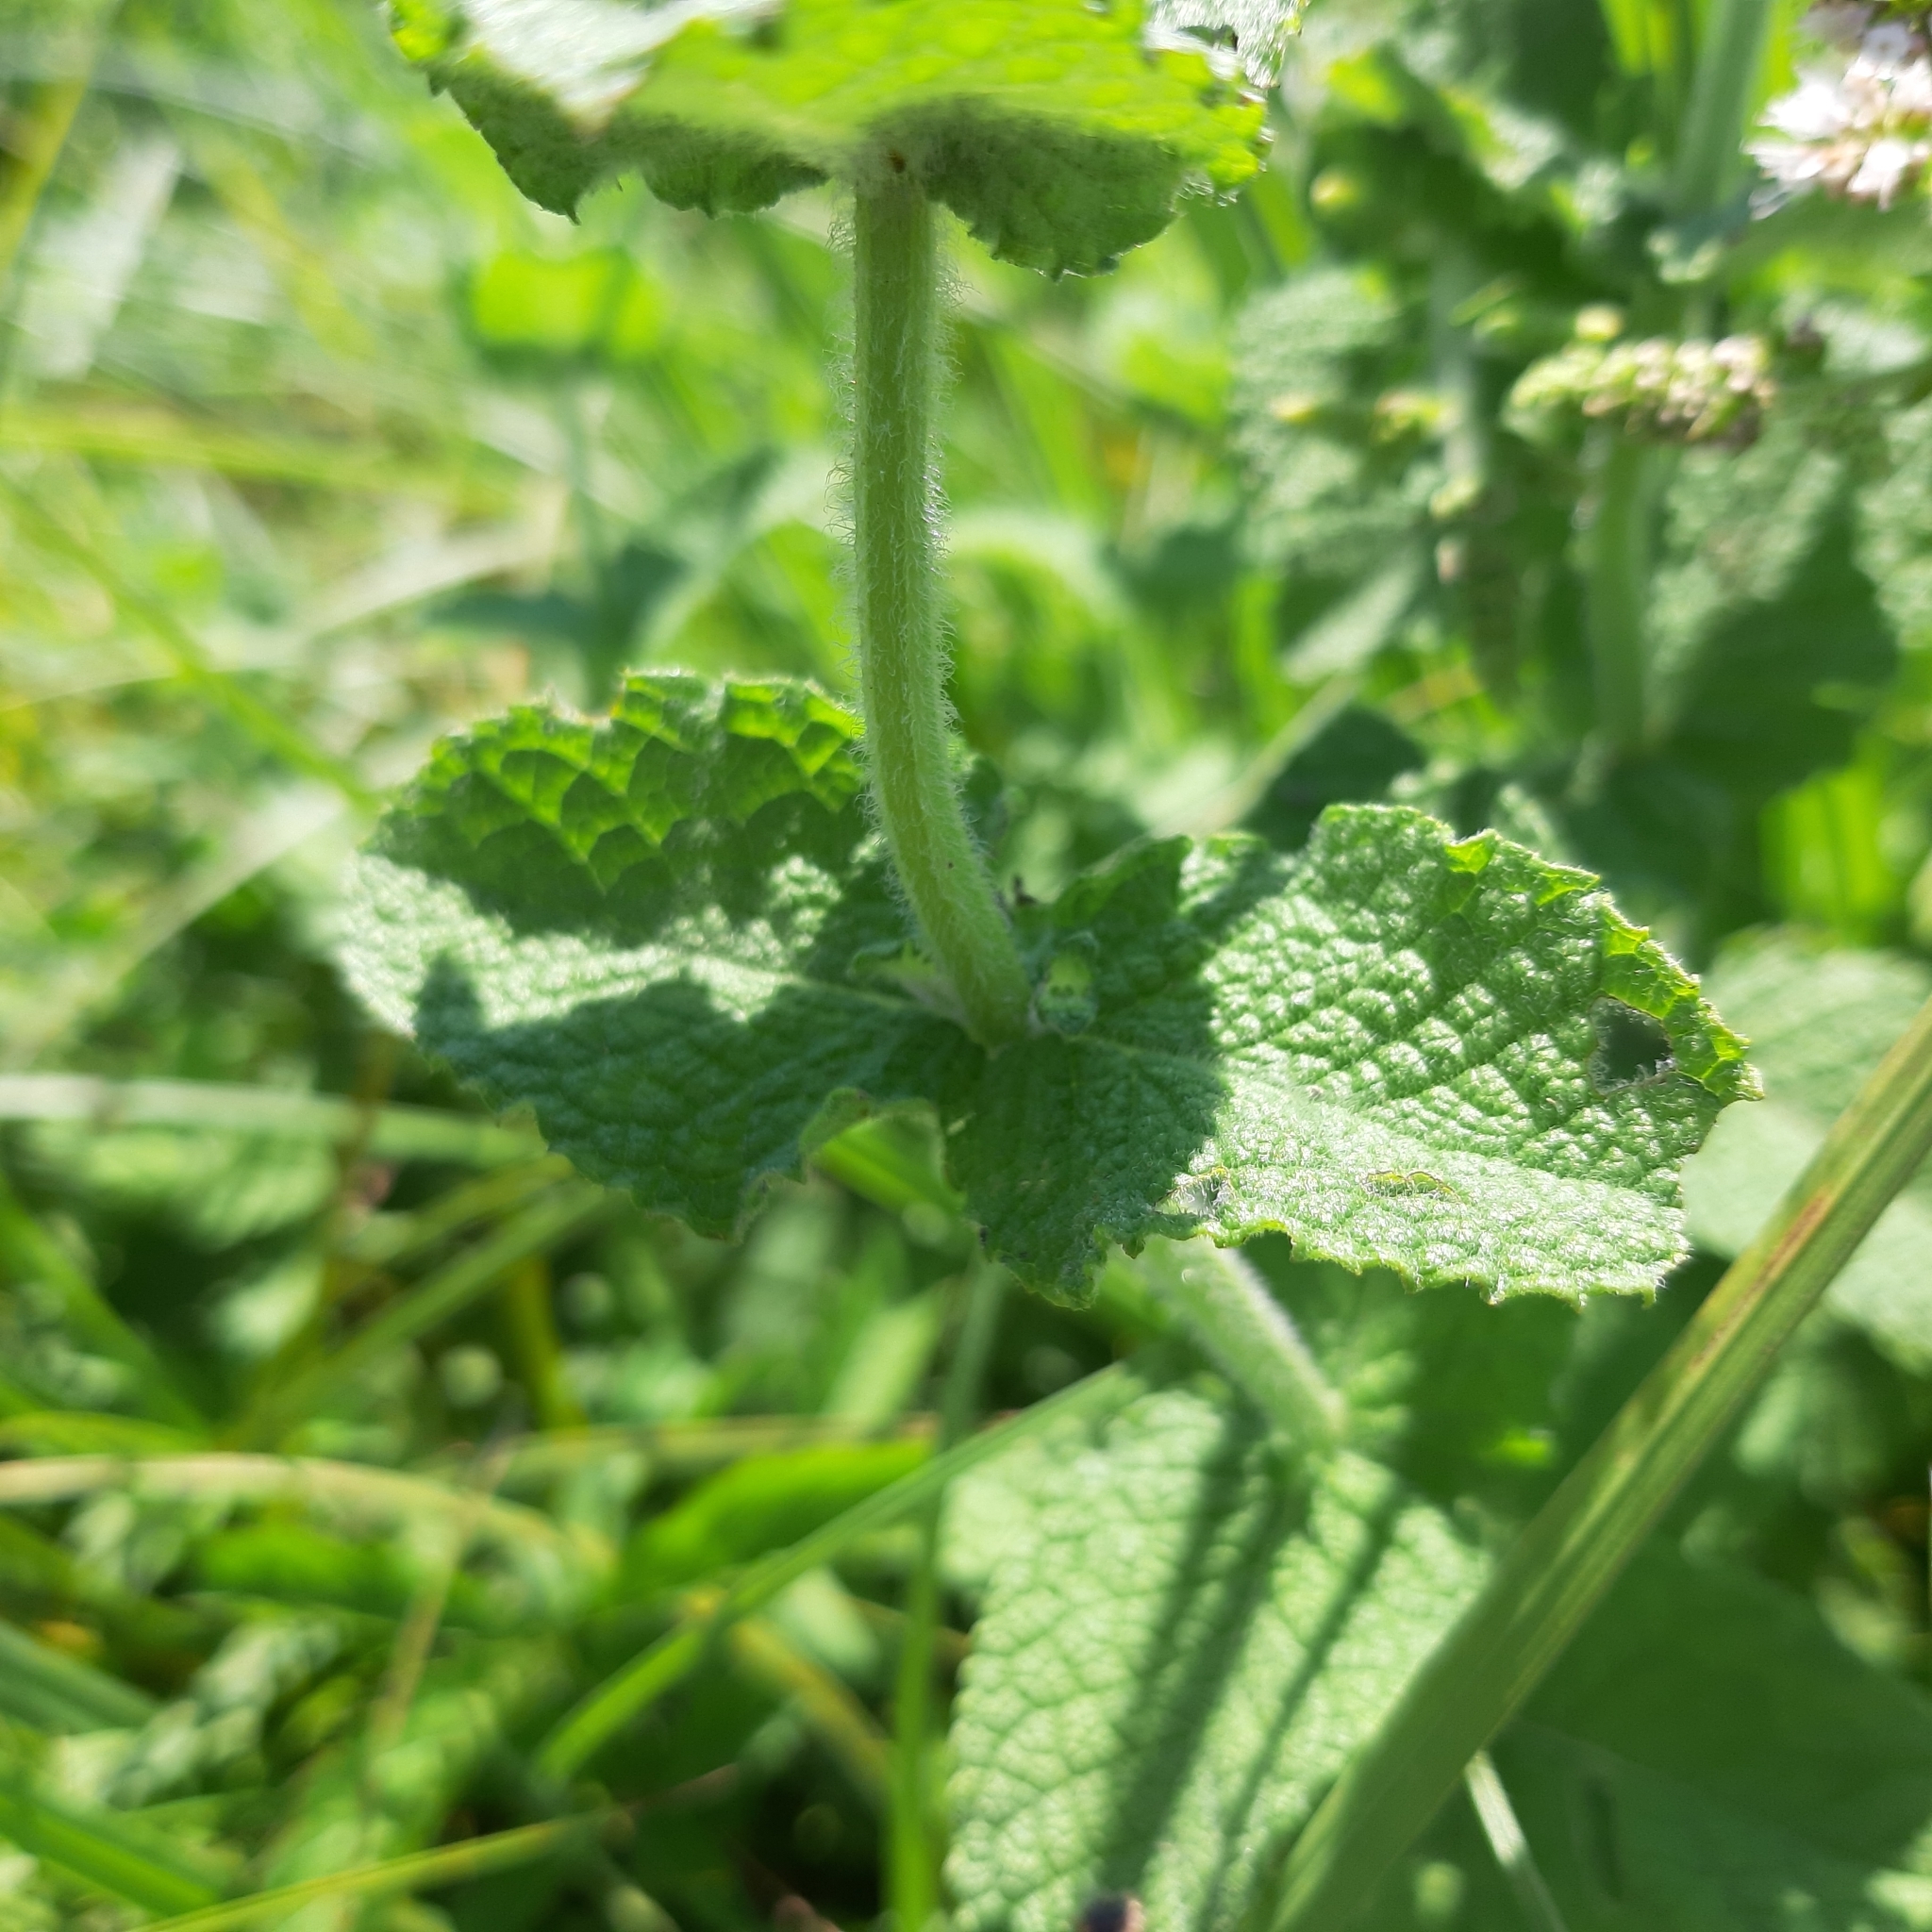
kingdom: Plantae
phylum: Tracheophyta
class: Magnoliopsida
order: Lamiales
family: Lamiaceae
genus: Mentha
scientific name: Mentha suaveolens
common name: Apple mint
